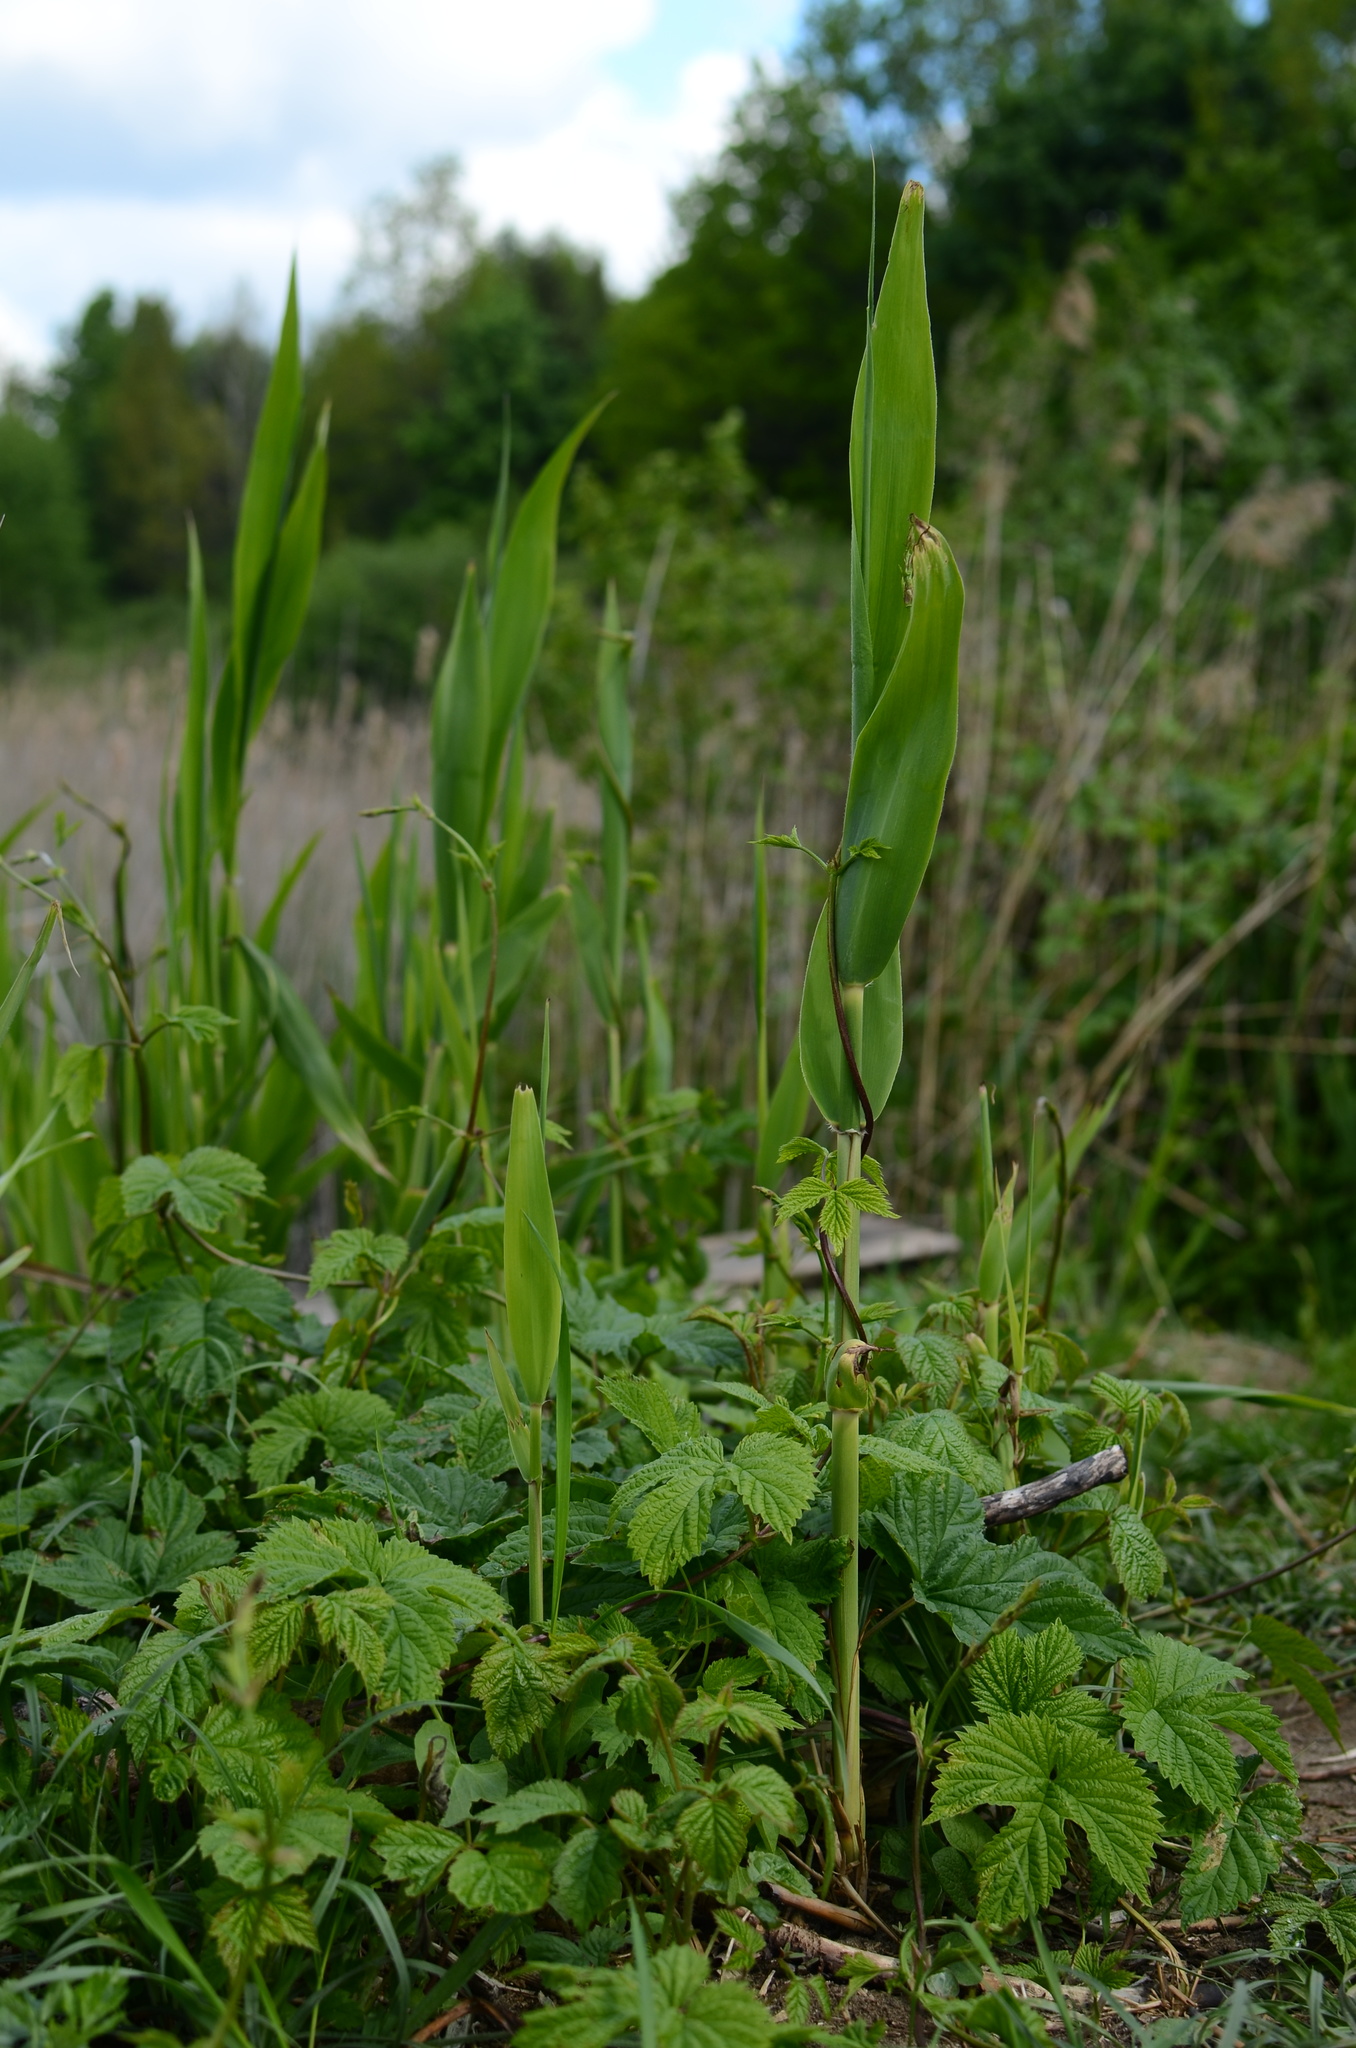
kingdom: Plantae
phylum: Tracheophyta
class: Liliopsida
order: Poales
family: Poaceae
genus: Phragmites
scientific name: Phragmites australis
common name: Common reed
